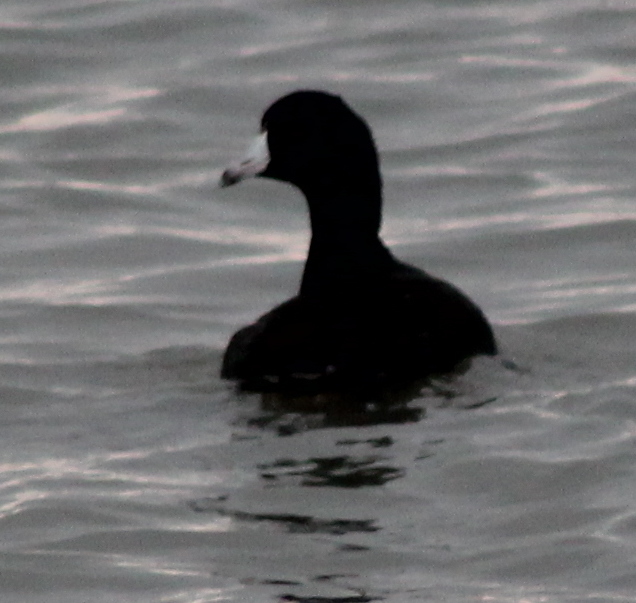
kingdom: Animalia
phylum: Chordata
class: Aves
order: Gruiformes
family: Rallidae
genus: Fulica
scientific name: Fulica americana
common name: American coot
